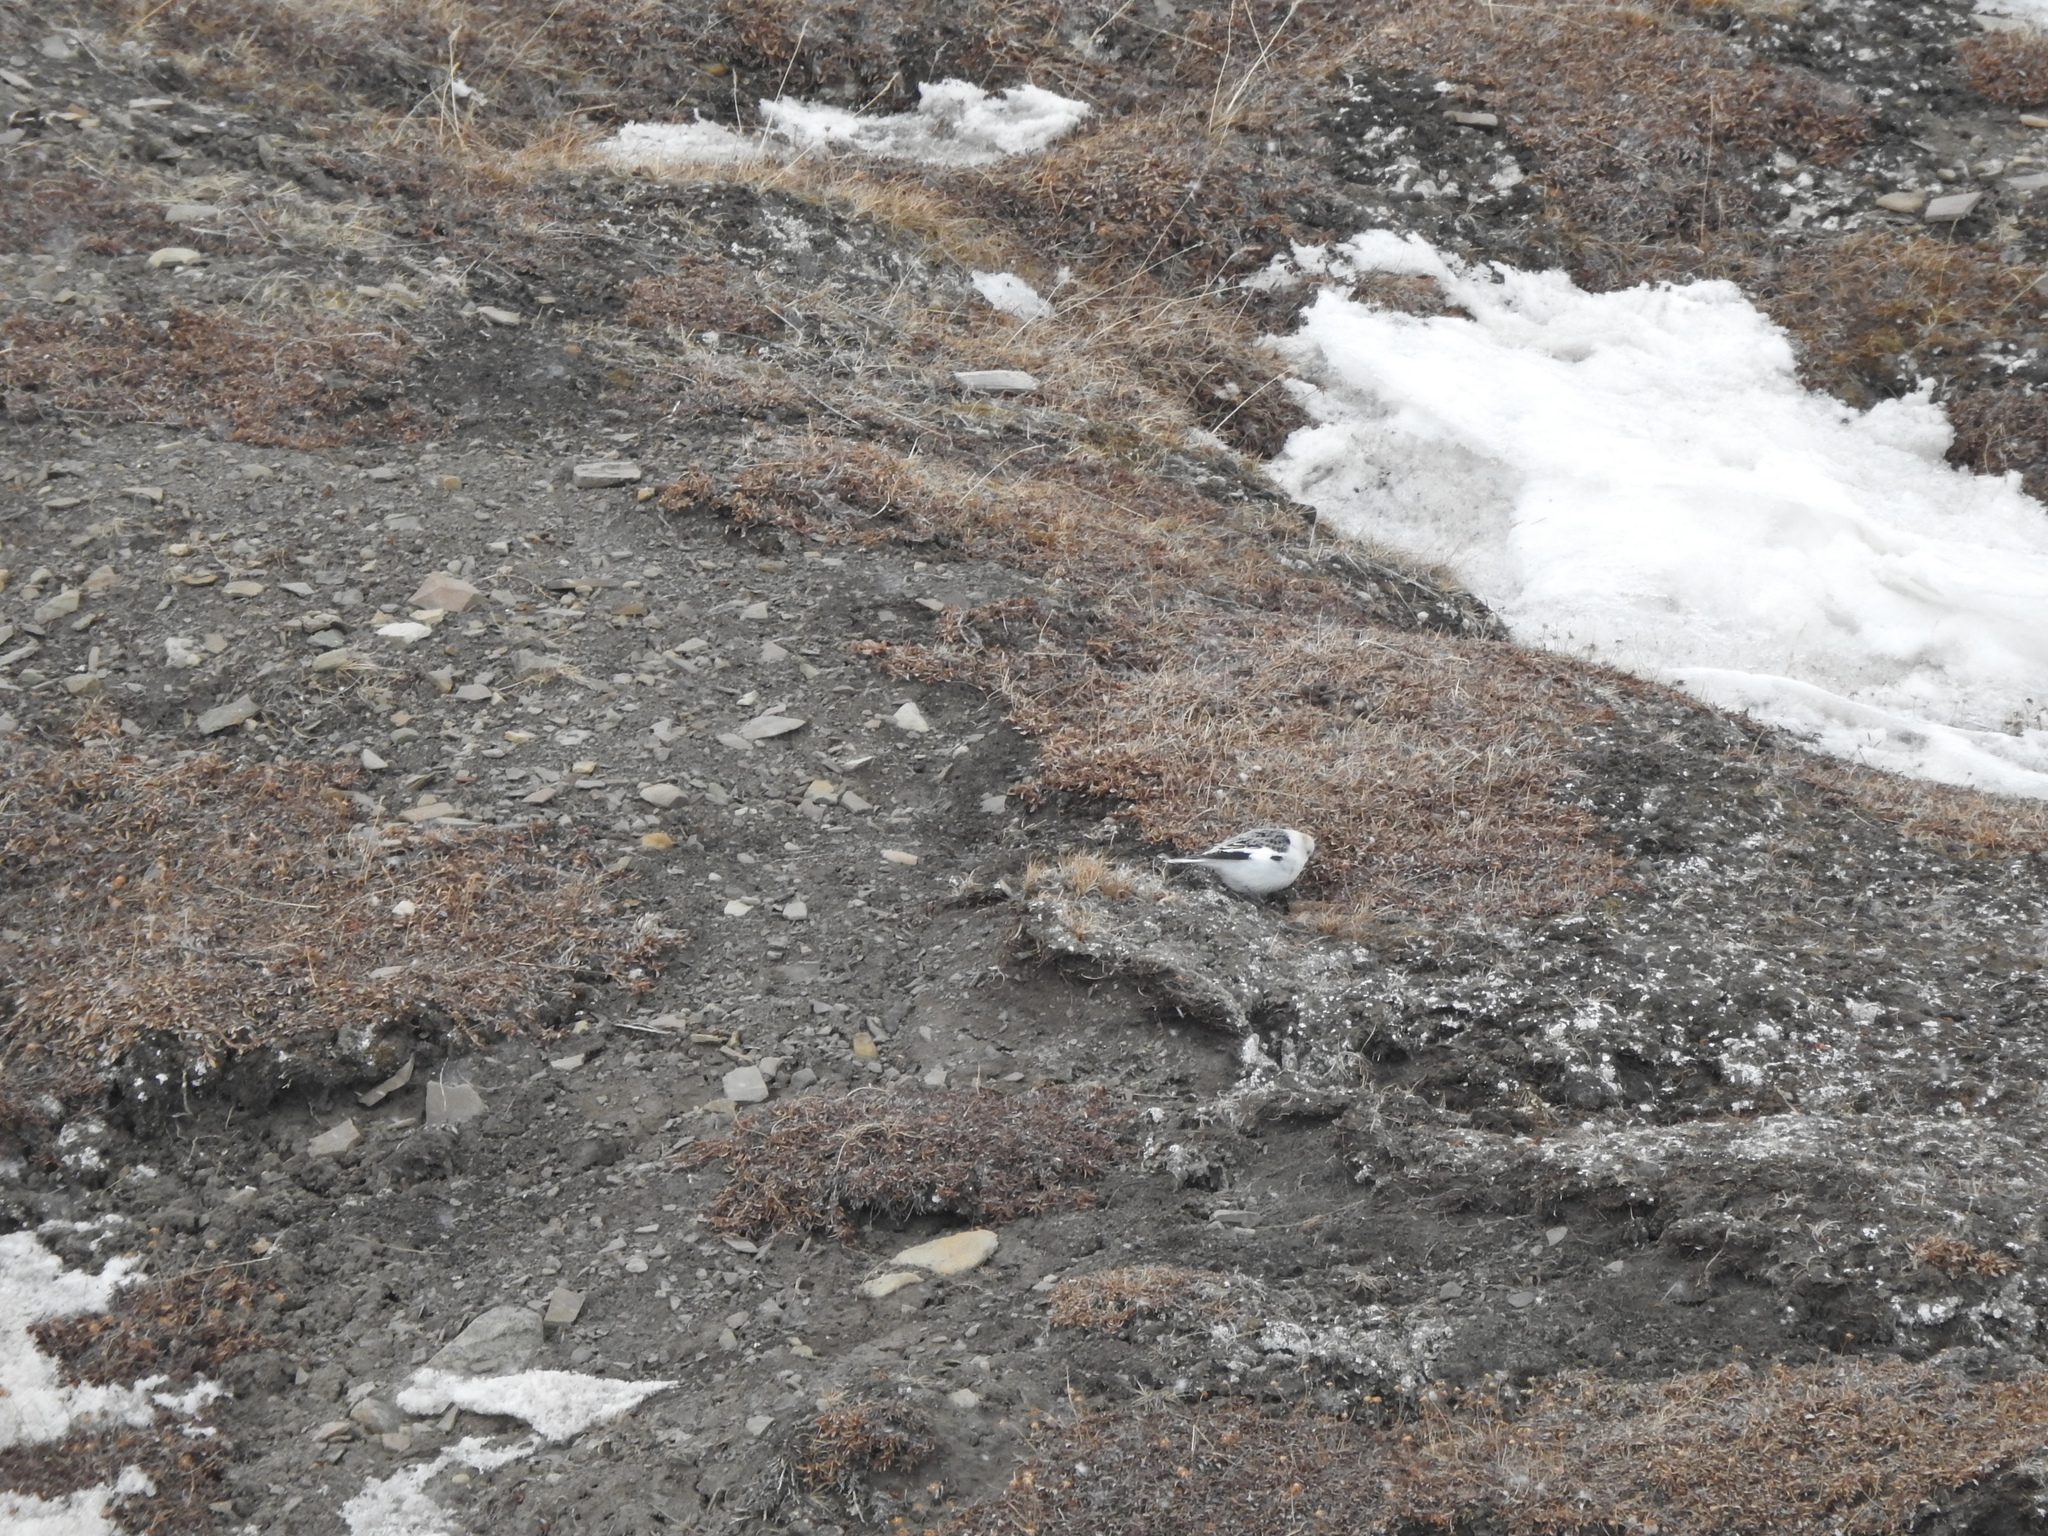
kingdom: Animalia
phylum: Chordata
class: Aves
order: Passeriformes
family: Calcariidae
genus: Plectrophenax
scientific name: Plectrophenax nivalis
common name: Snow bunting
